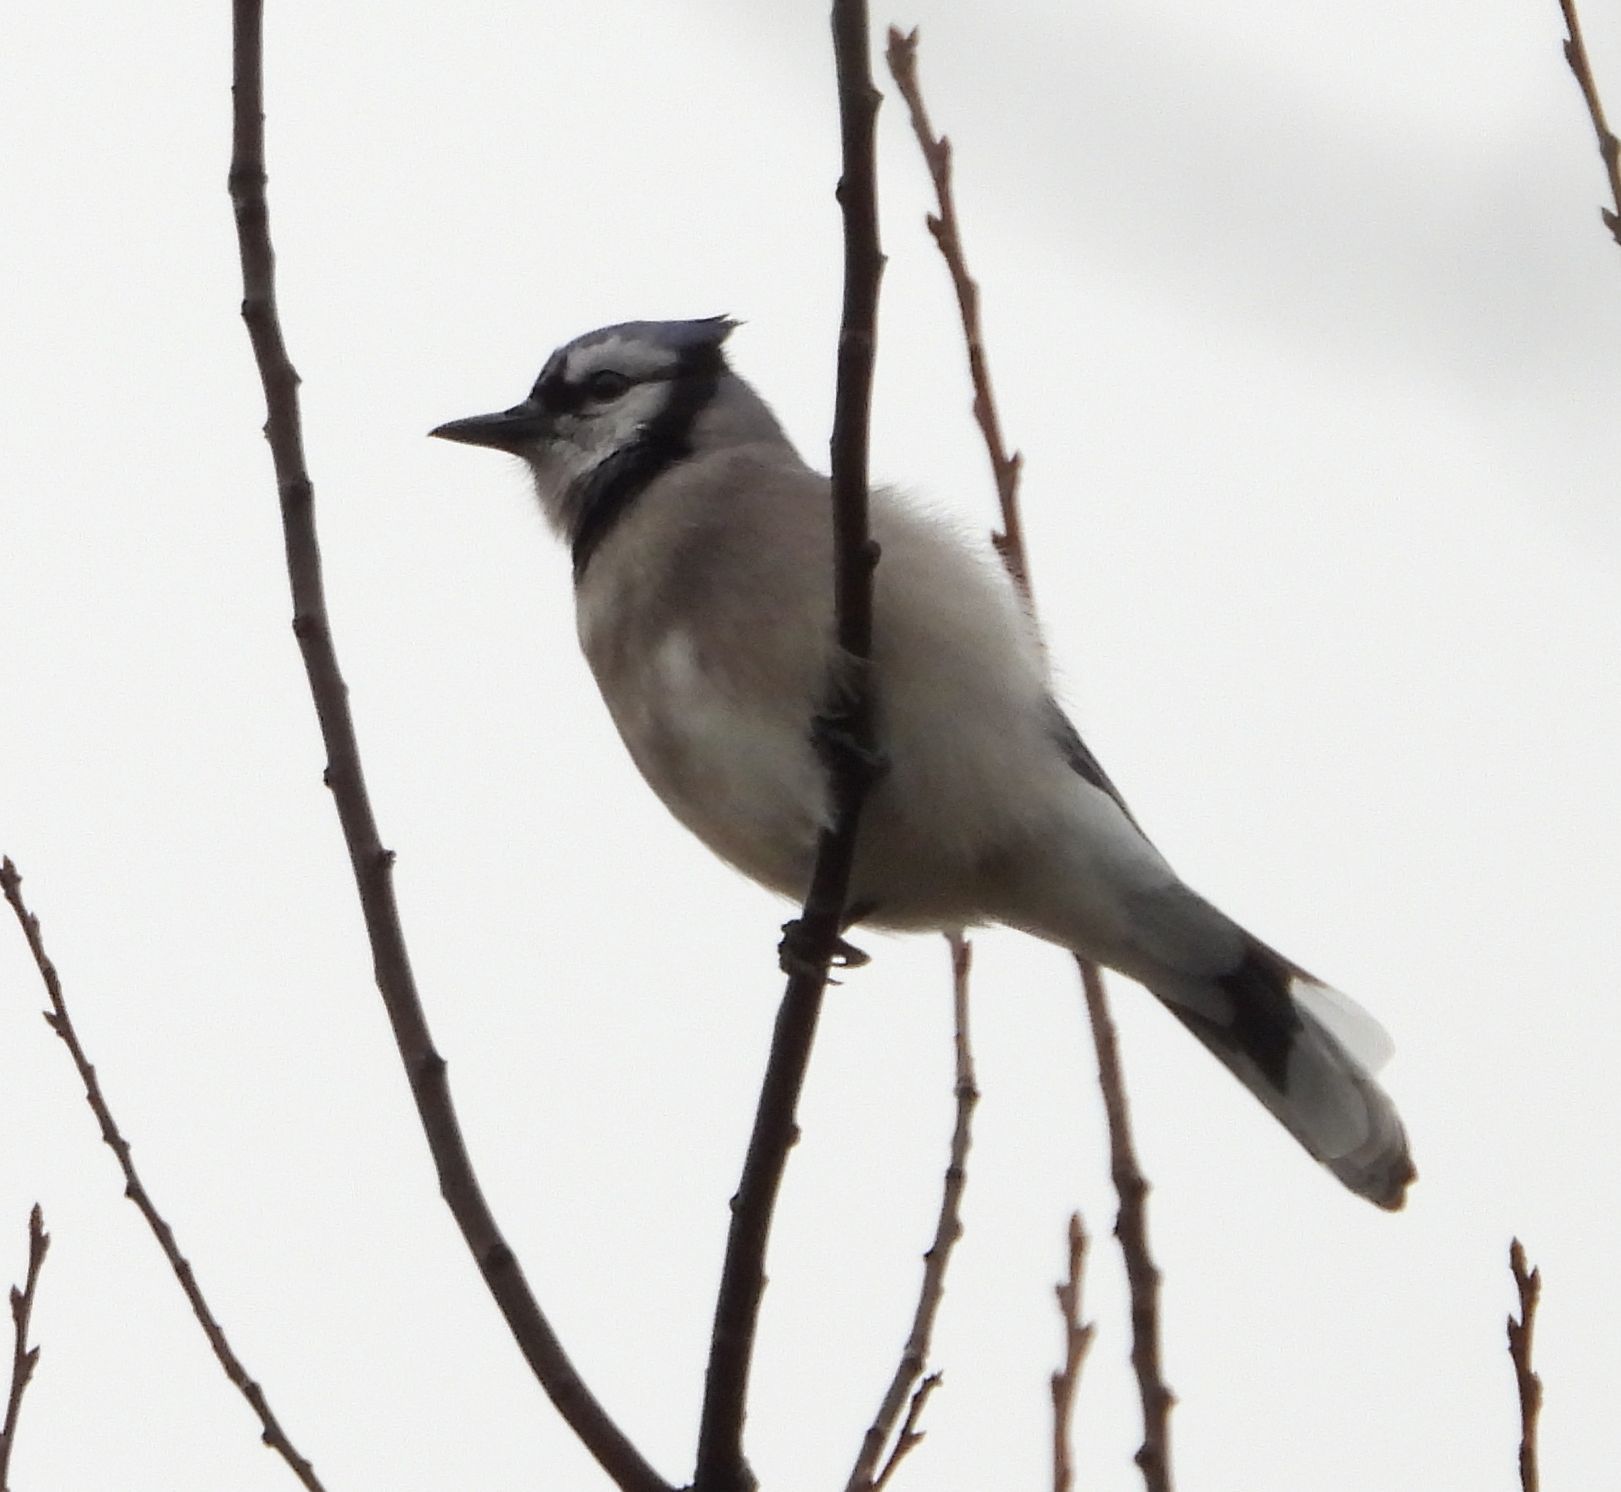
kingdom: Animalia
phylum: Chordata
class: Aves
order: Passeriformes
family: Corvidae
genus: Cyanocitta
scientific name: Cyanocitta cristata
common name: Blue jay
